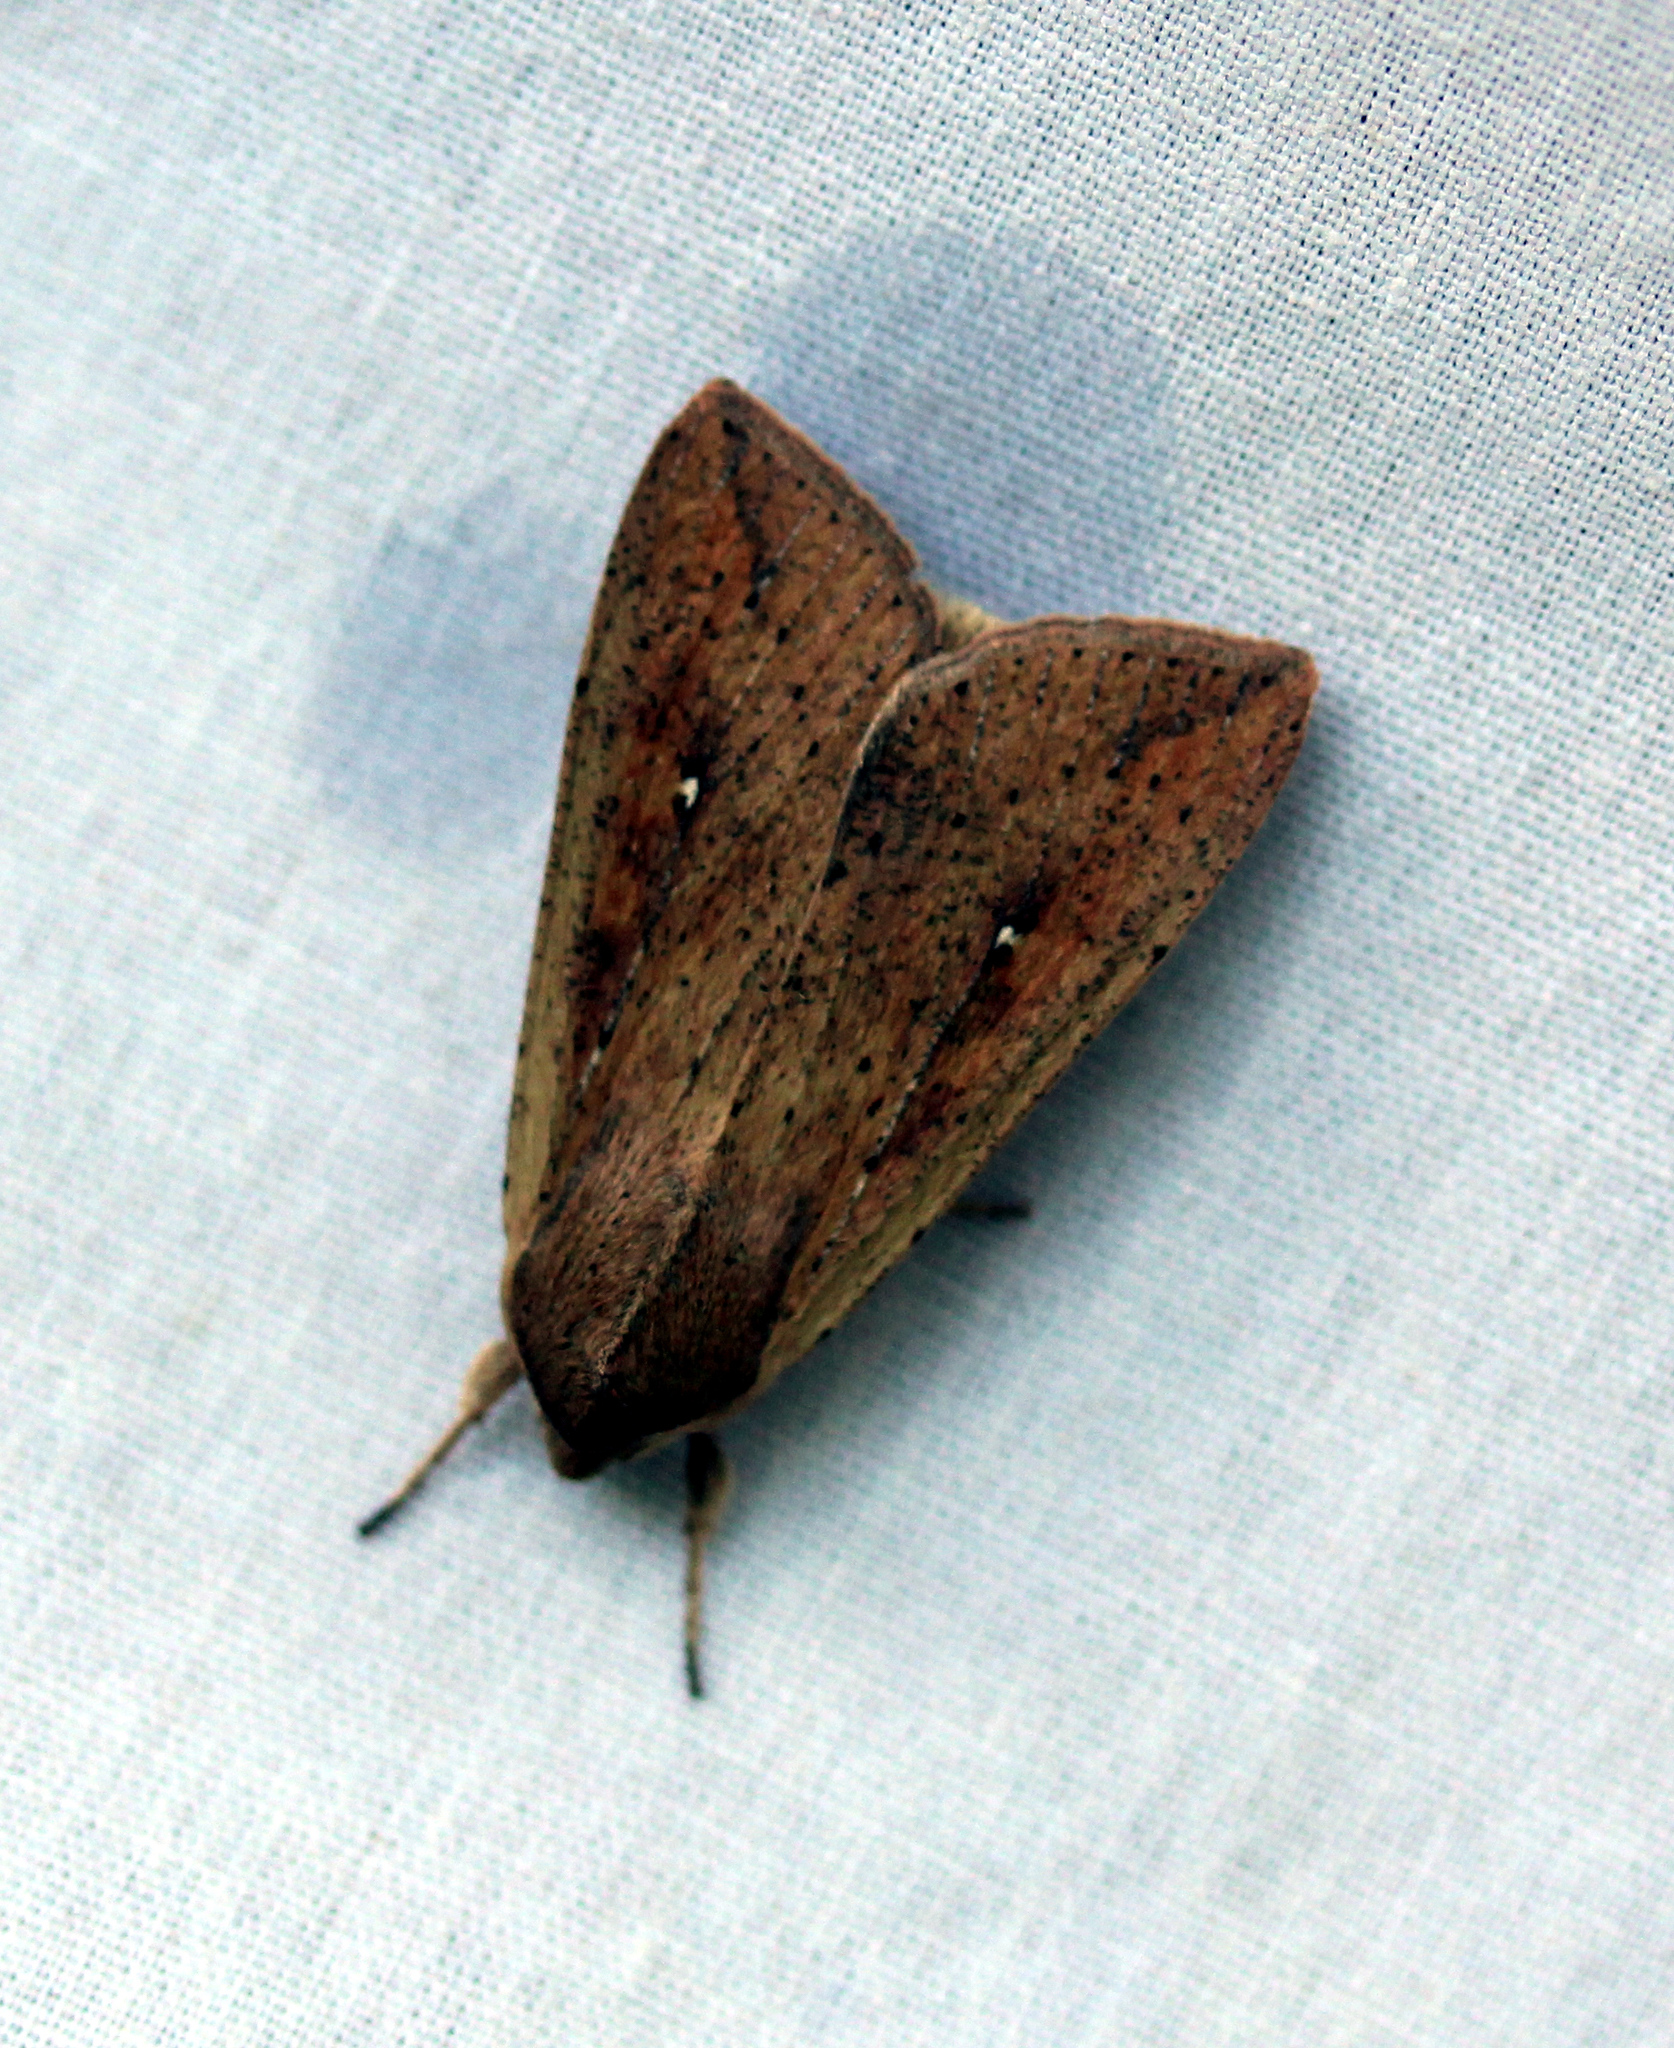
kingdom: Animalia
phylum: Arthropoda
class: Insecta
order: Lepidoptera
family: Noctuidae
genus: Mythimna
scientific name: Mythimna unipuncta
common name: White-speck
